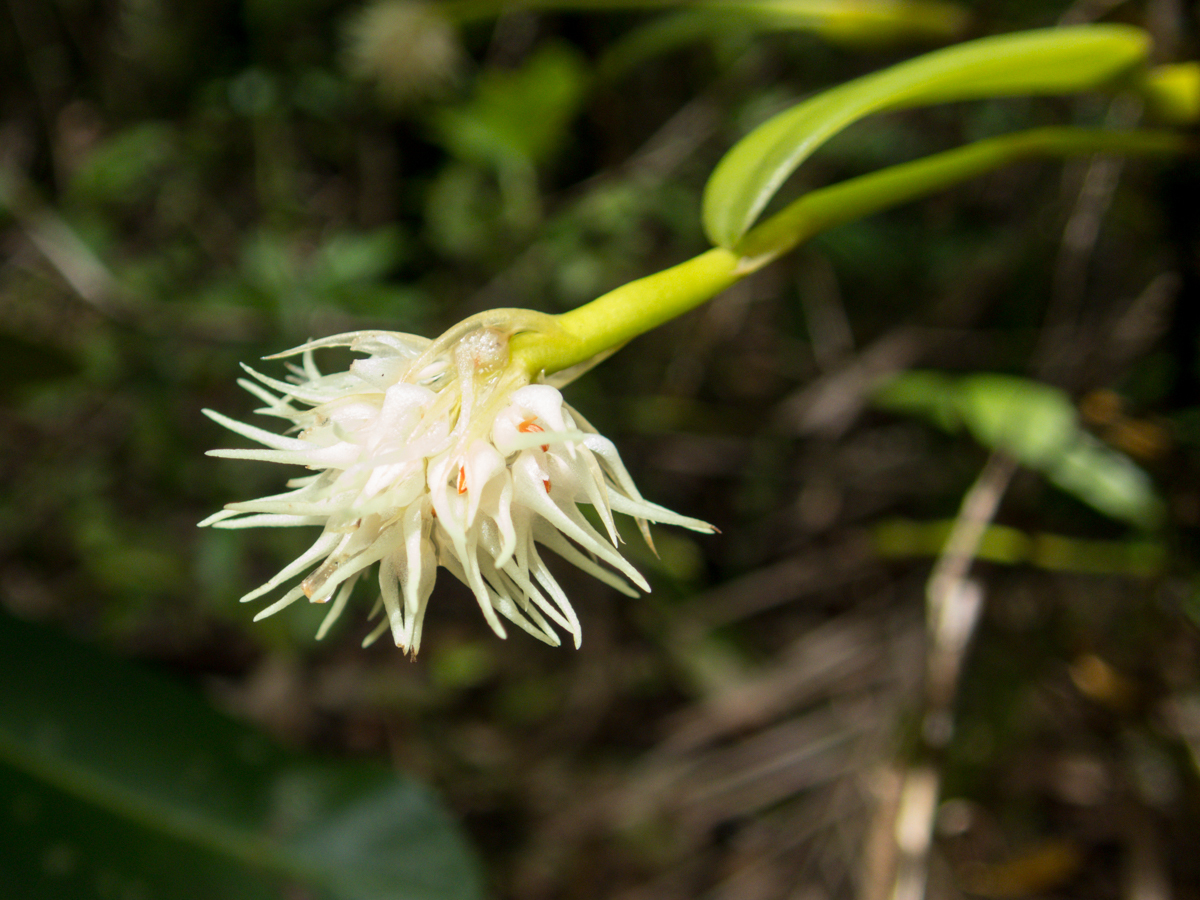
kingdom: Plantae
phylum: Tracheophyta
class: Liliopsida
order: Asparagales
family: Orchidaceae
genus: Bulbophyllum
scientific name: Bulbophyllum odoratissimum
